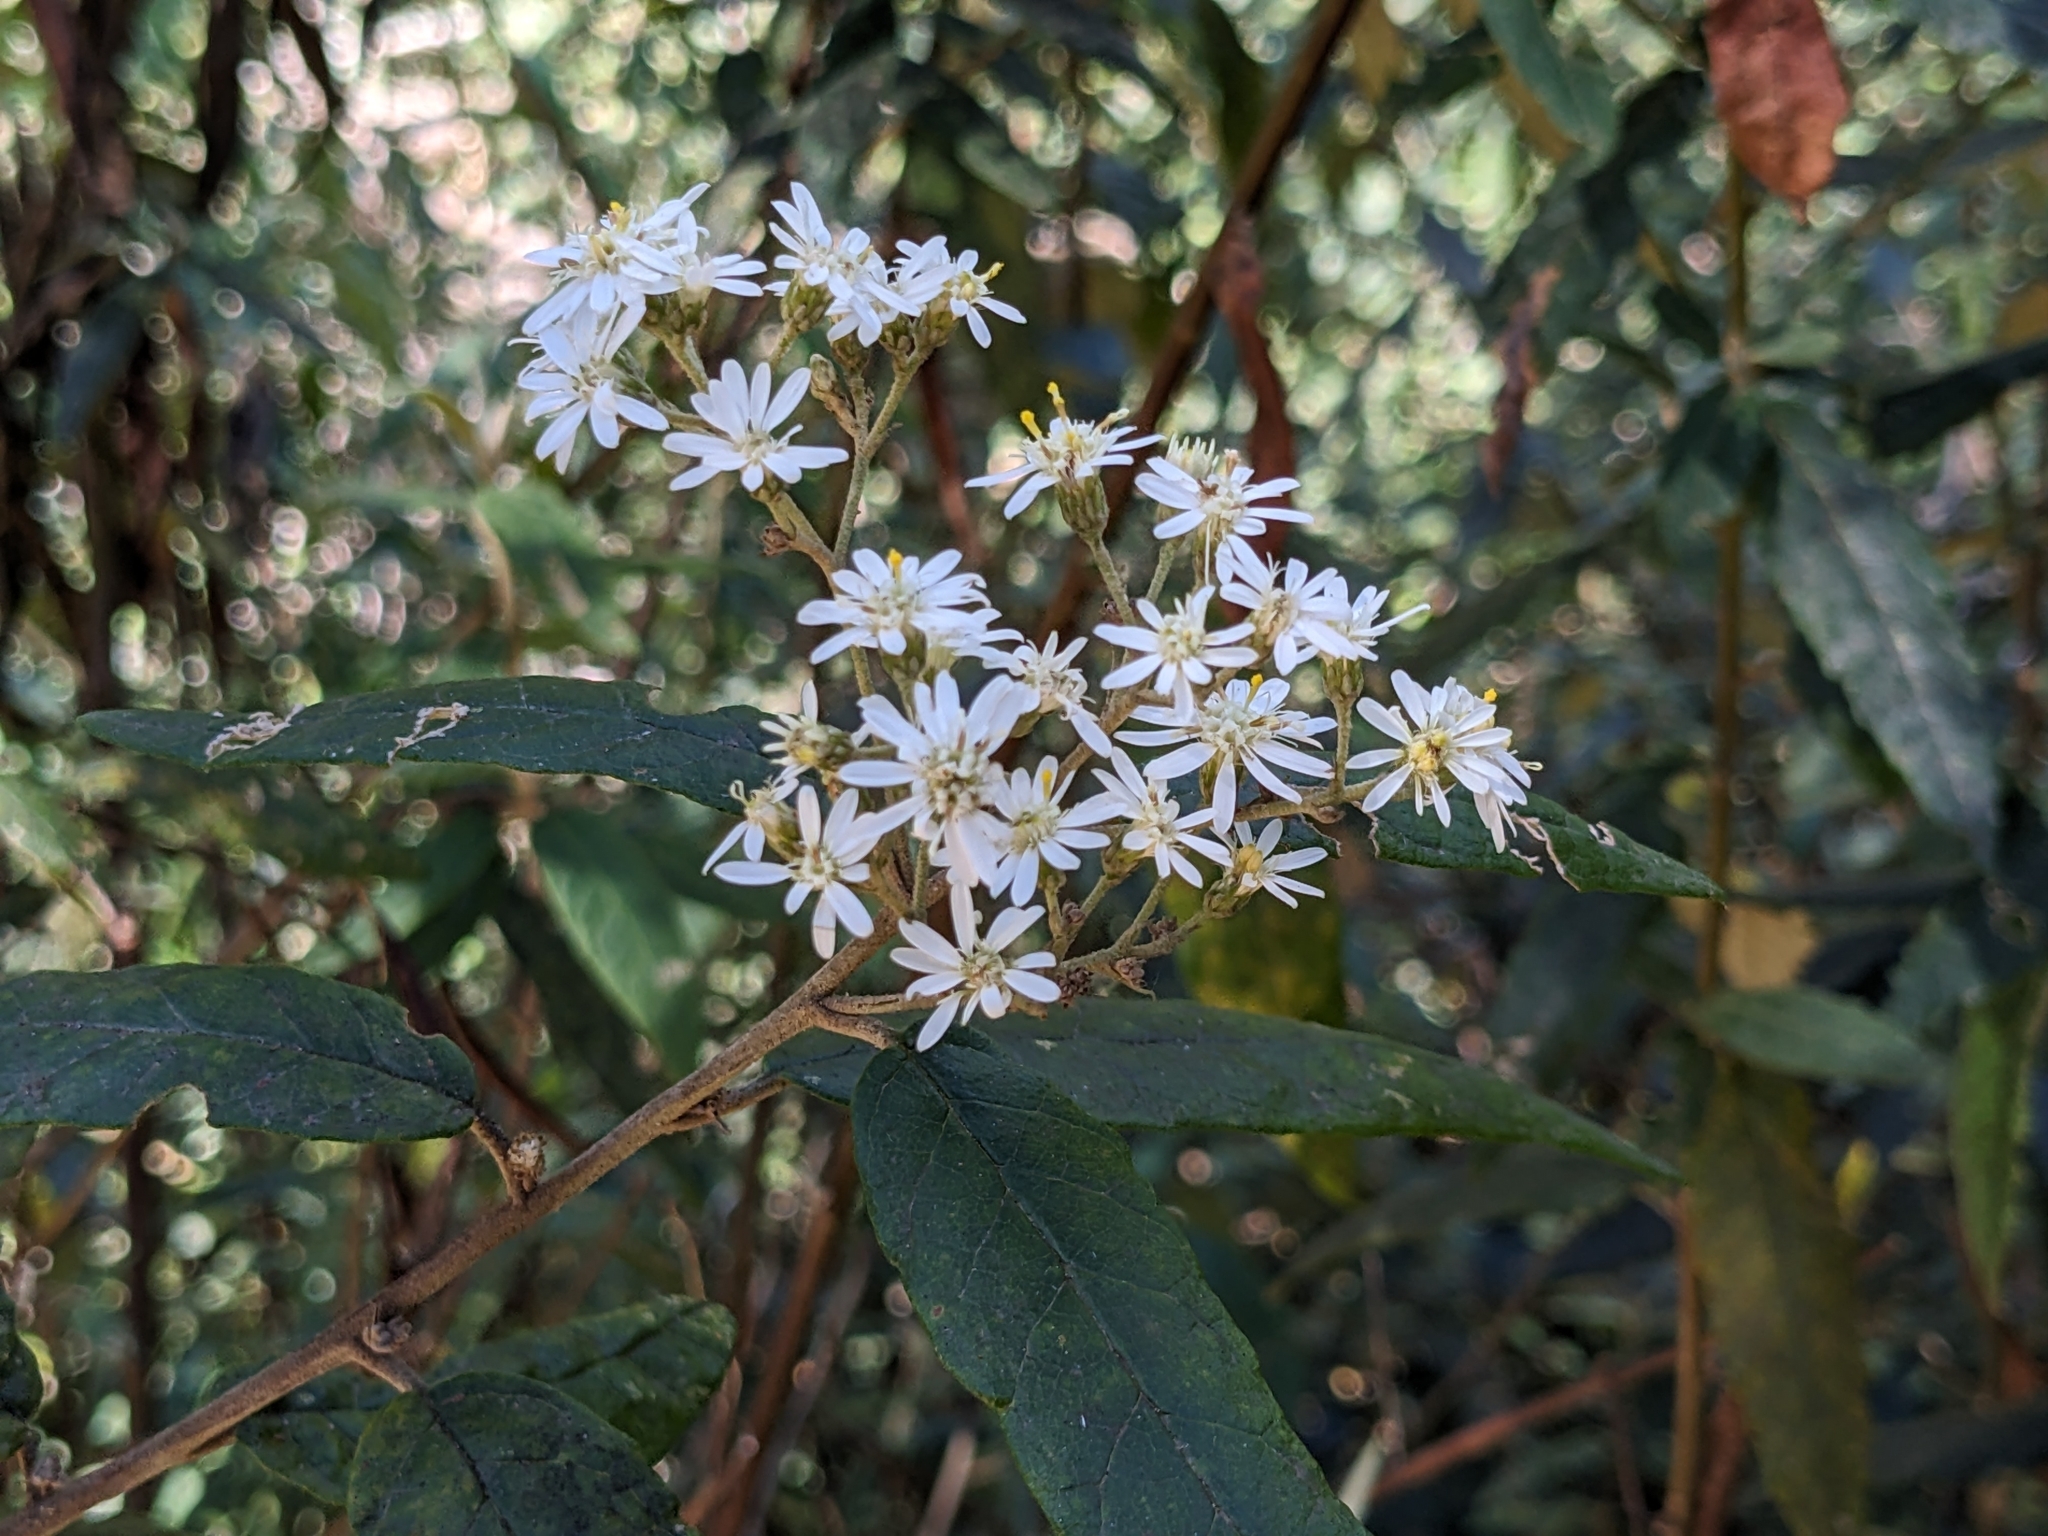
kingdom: Plantae
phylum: Tracheophyta
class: Magnoliopsida
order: Asterales
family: Asteraceae
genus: Olearia
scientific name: Olearia lirata
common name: Dusty daisybush
